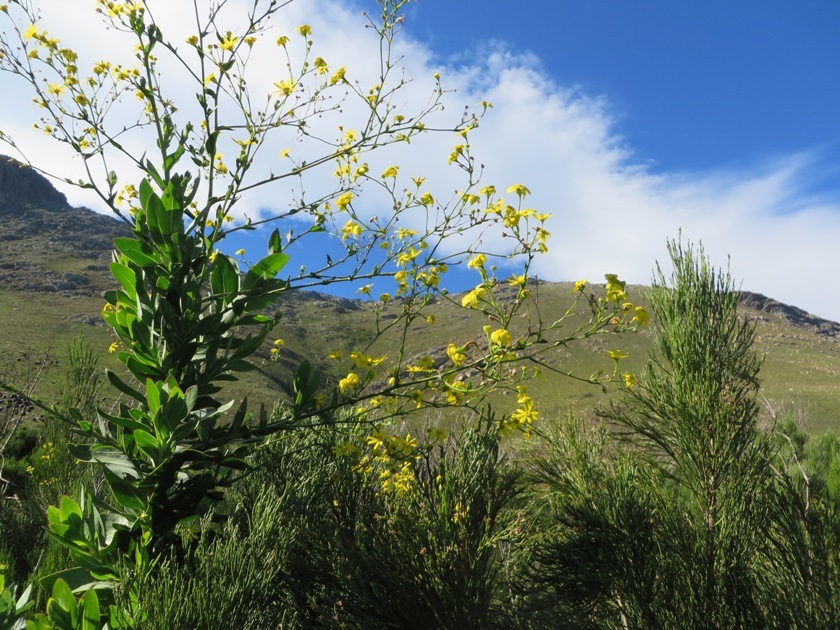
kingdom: Plantae
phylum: Tracheophyta
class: Magnoliopsida
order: Asterales
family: Asteraceae
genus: Othonna
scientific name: Othonna quinquedentata
